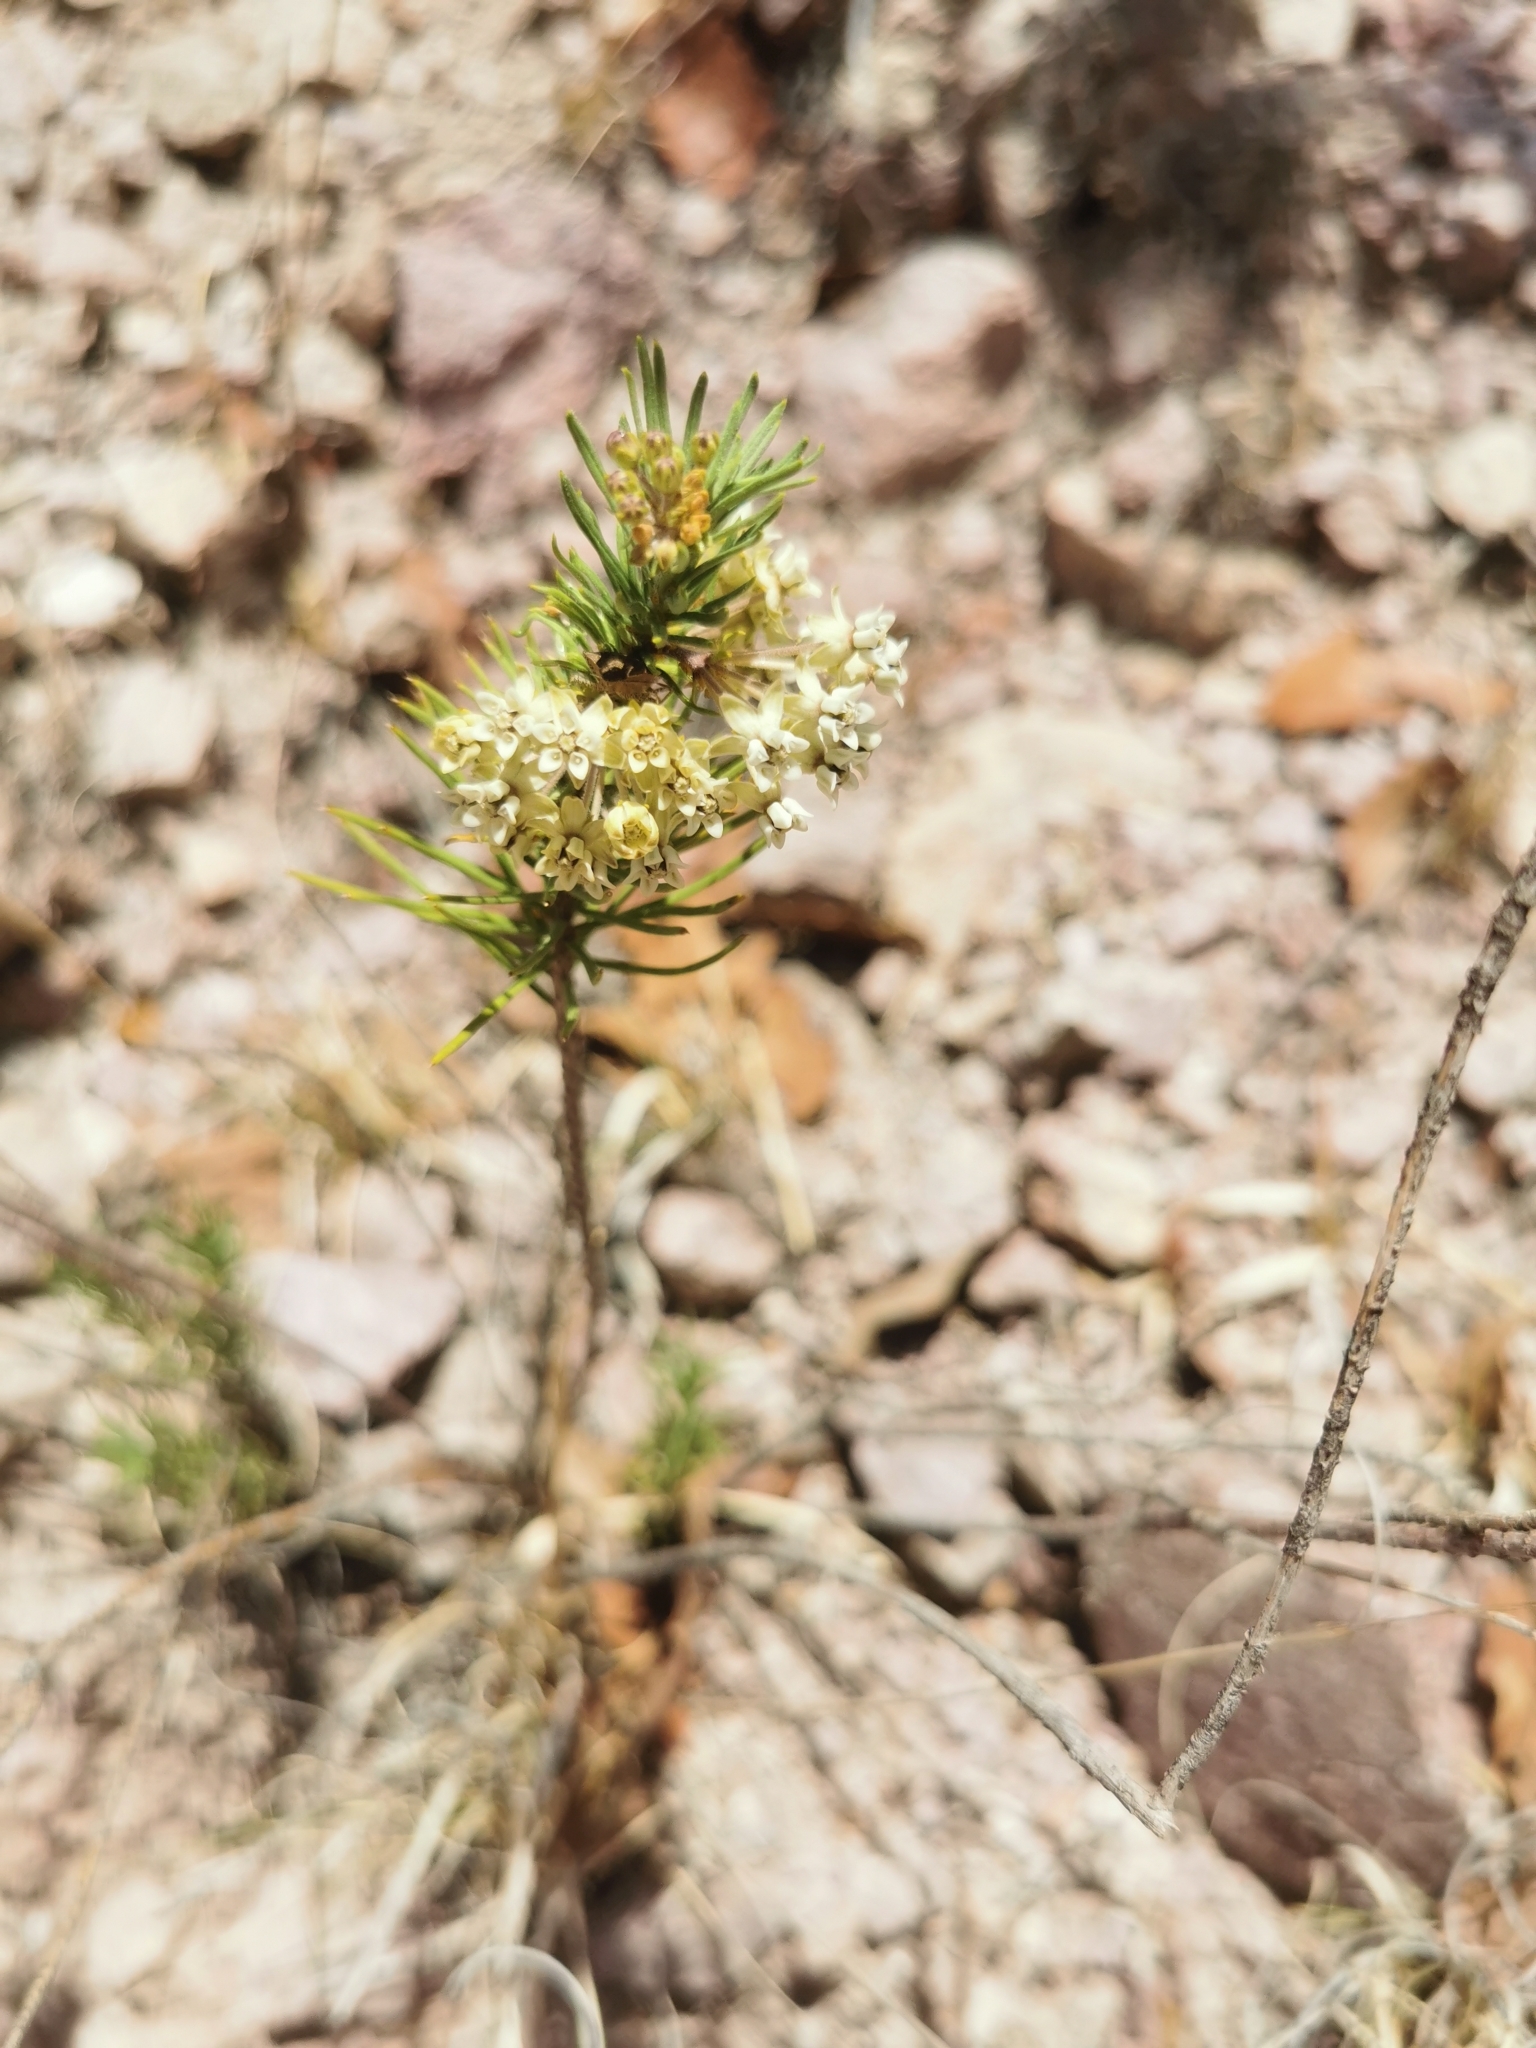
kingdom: Plantae
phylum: Tracheophyta
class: Magnoliopsida
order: Gentianales
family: Apocynaceae
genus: Asclepias
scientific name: Asclepias linaria
